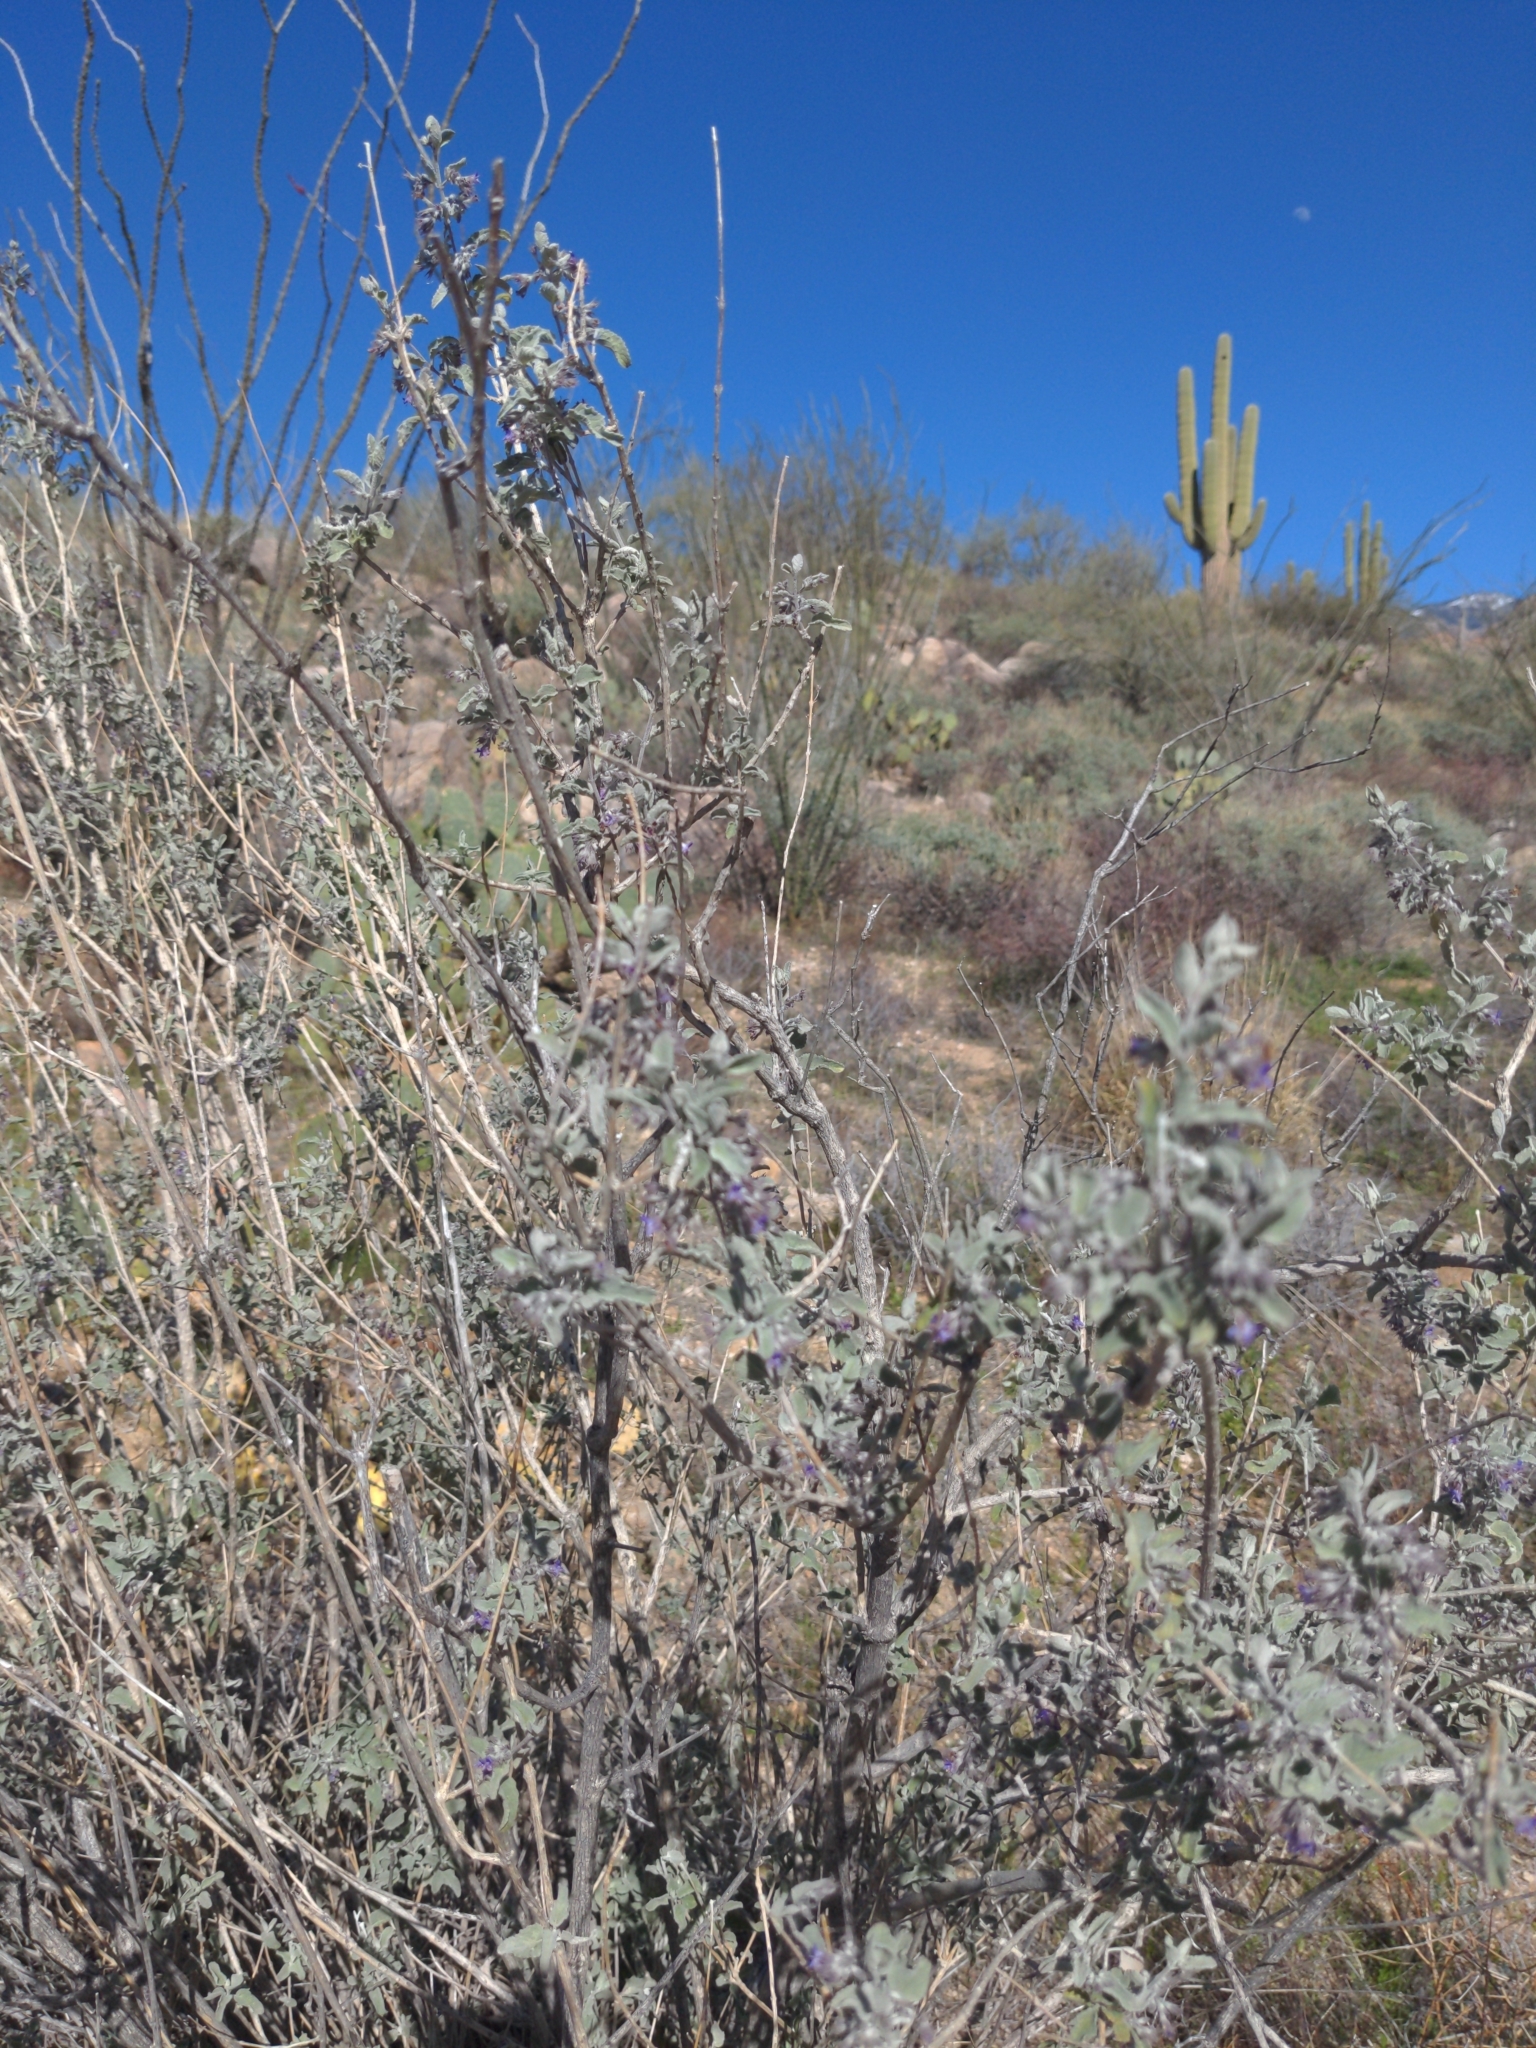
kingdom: Plantae
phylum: Tracheophyta
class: Magnoliopsida
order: Lamiales
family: Lamiaceae
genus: Condea
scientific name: Condea emoryi
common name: Chia
